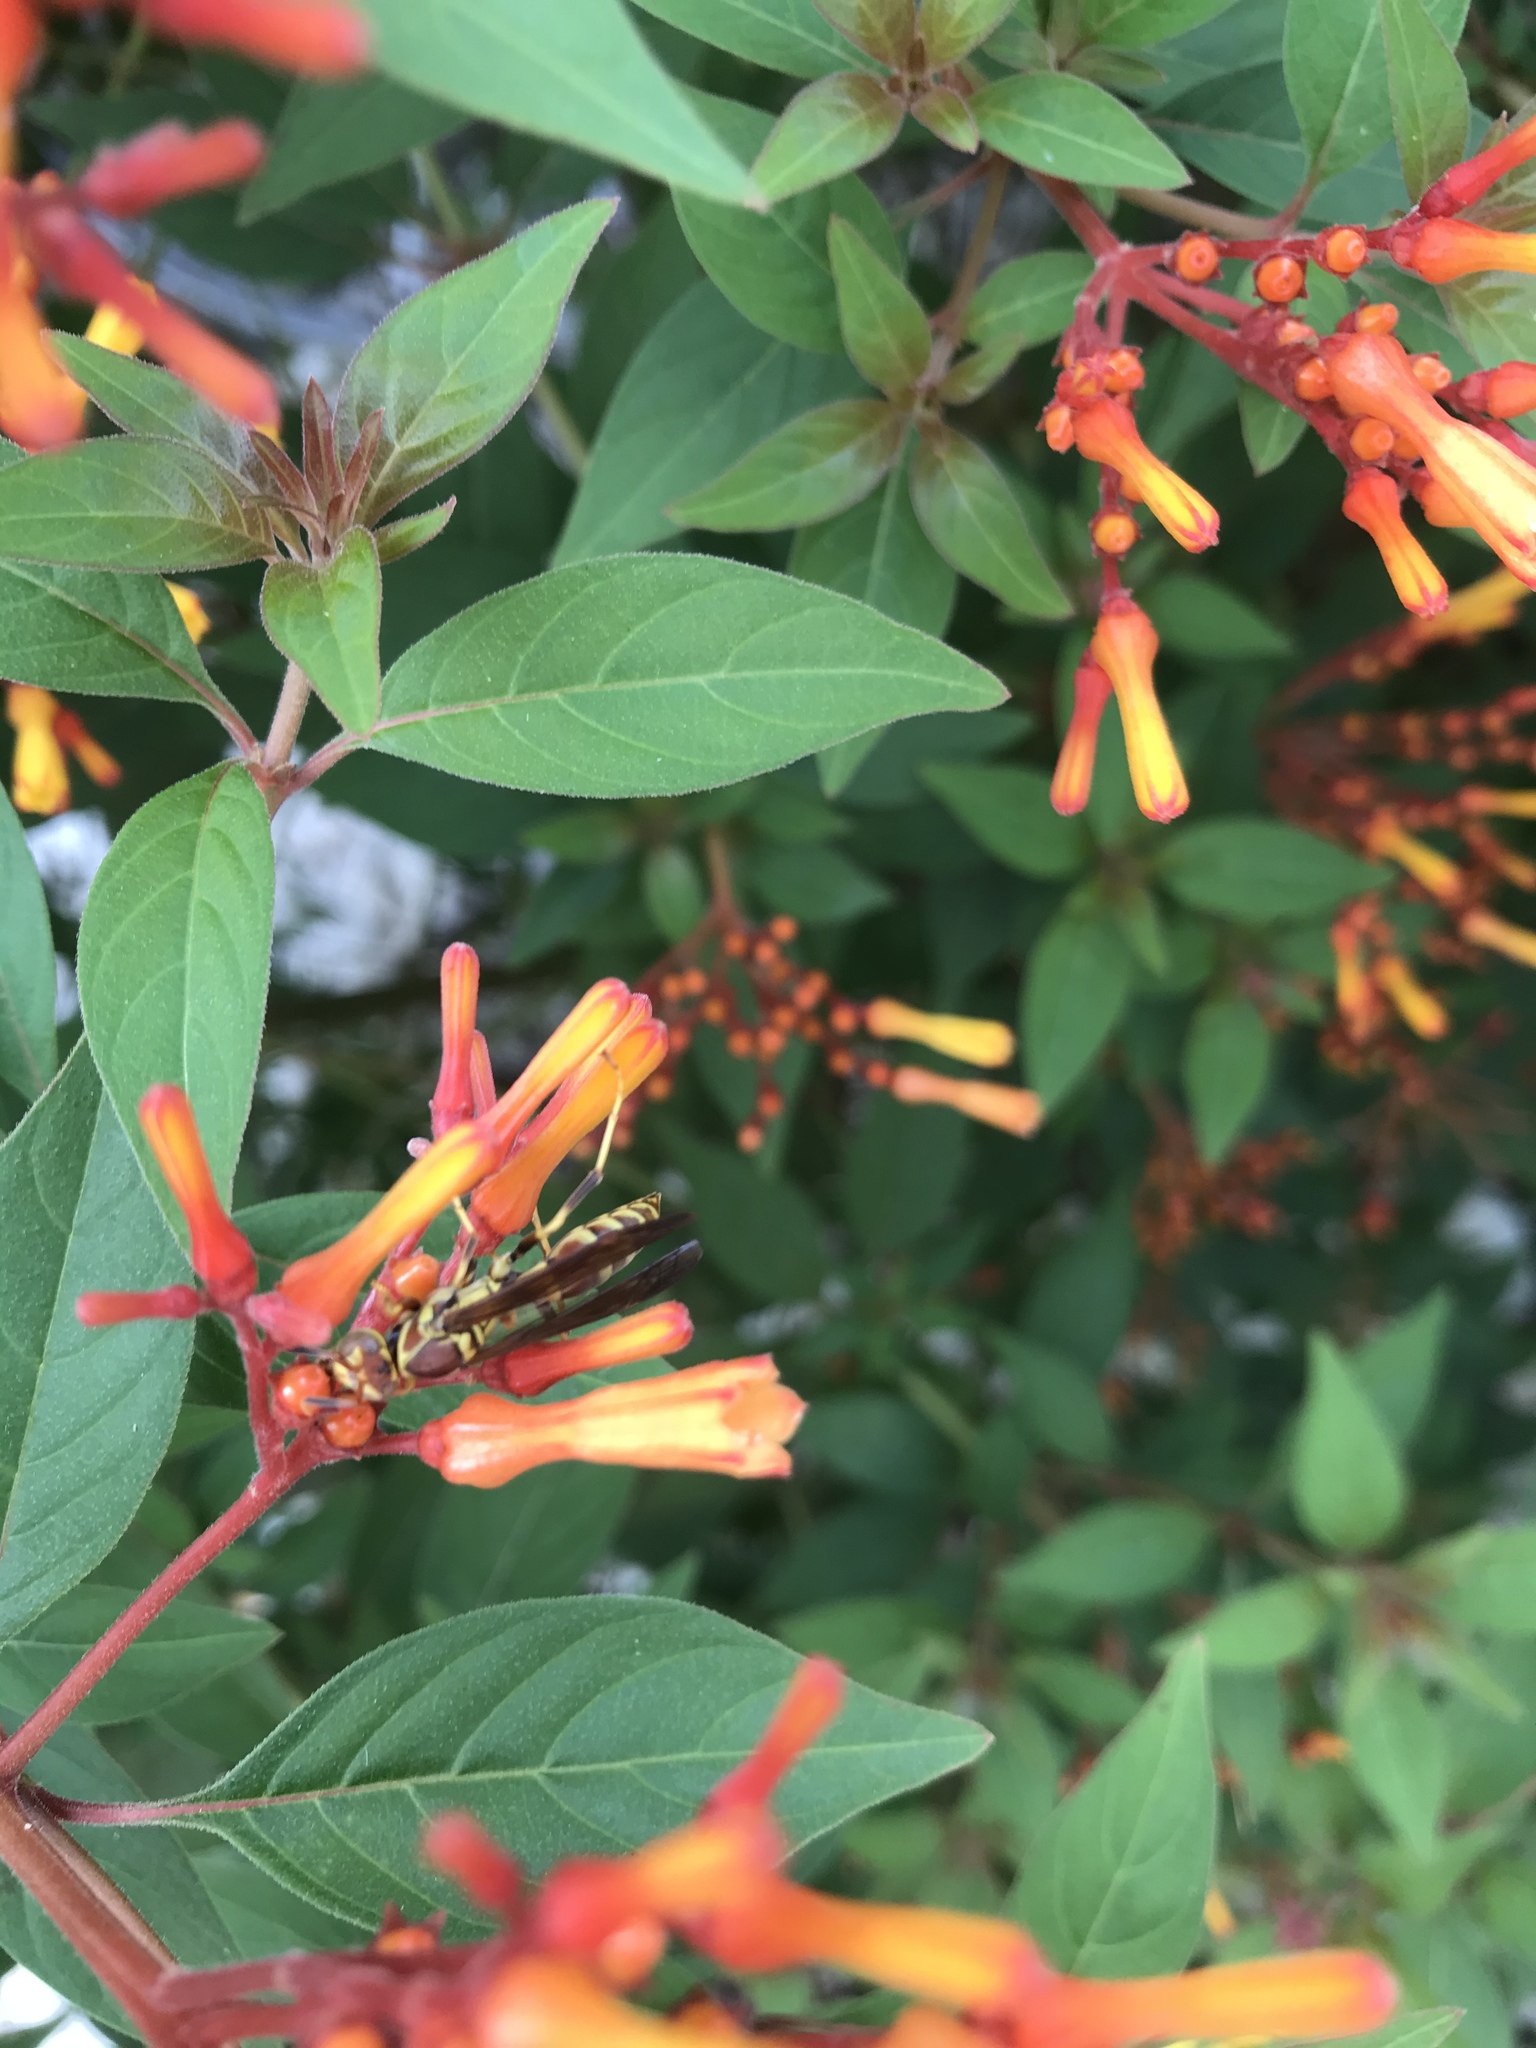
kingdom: Plantae
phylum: Tracheophyta
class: Magnoliopsida
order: Gentianales
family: Rubiaceae
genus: Hamelia
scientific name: Hamelia patens
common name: Redhead
